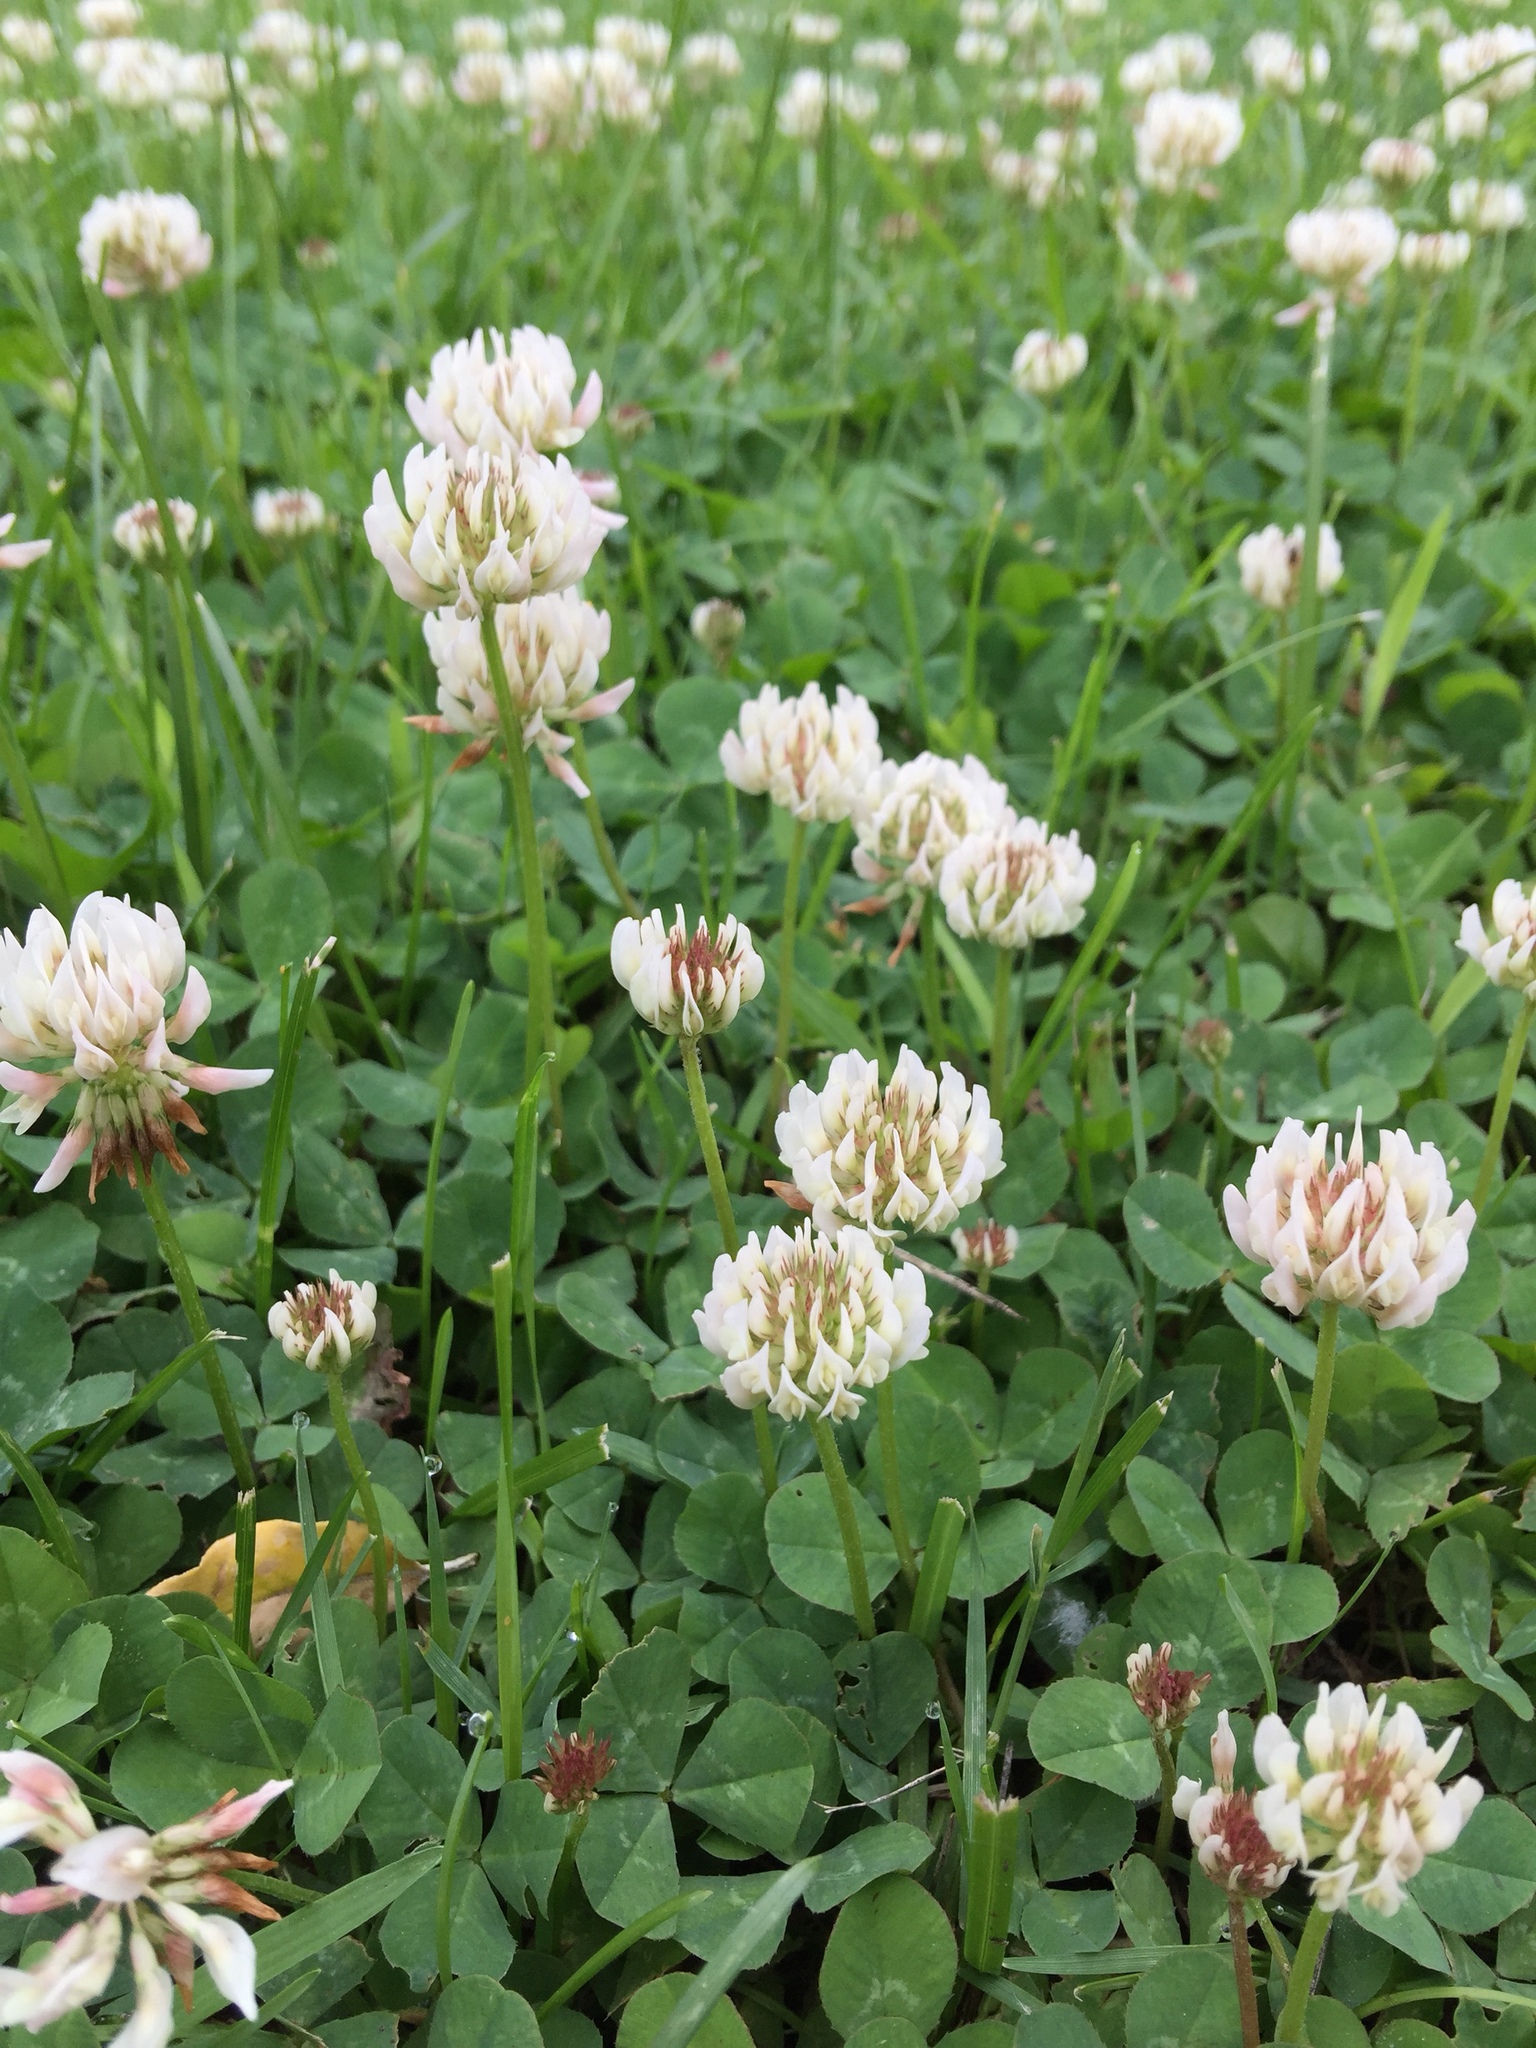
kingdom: Plantae
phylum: Tracheophyta
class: Magnoliopsida
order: Fabales
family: Fabaceae
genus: Trifolium
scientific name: Trifolium repens
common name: White clover
